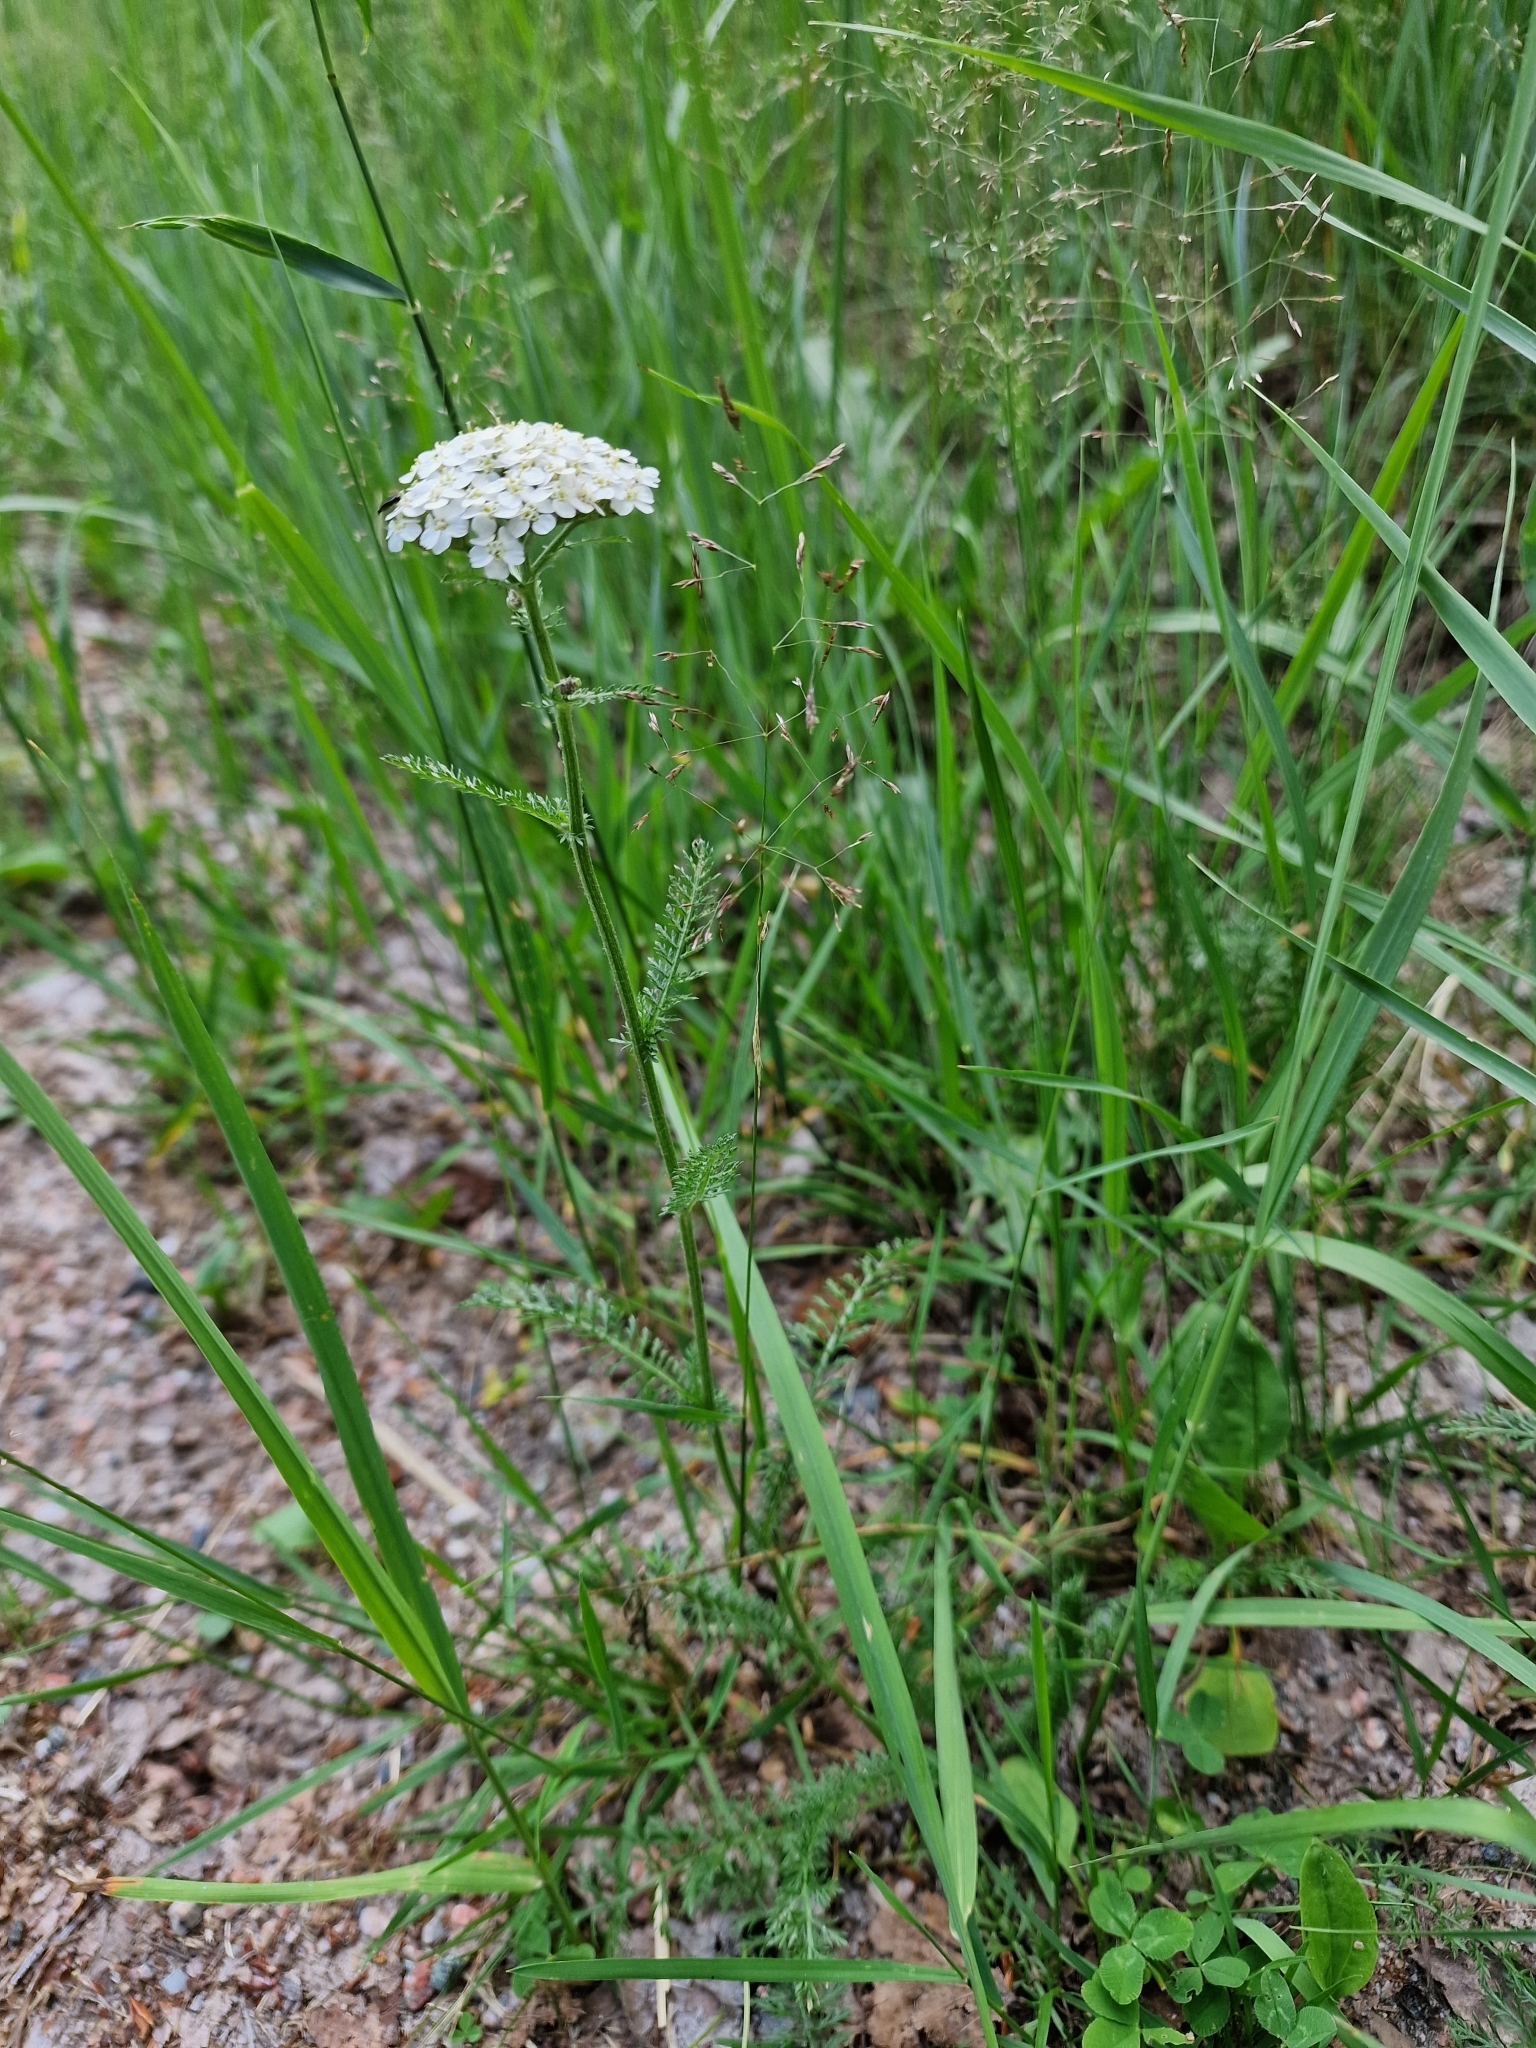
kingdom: Plantae
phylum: Tracheophyta
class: Magnoliopsida
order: Asterales
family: Asteraceae
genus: Achillea
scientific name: Achillea millefolium
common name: Yarrow
